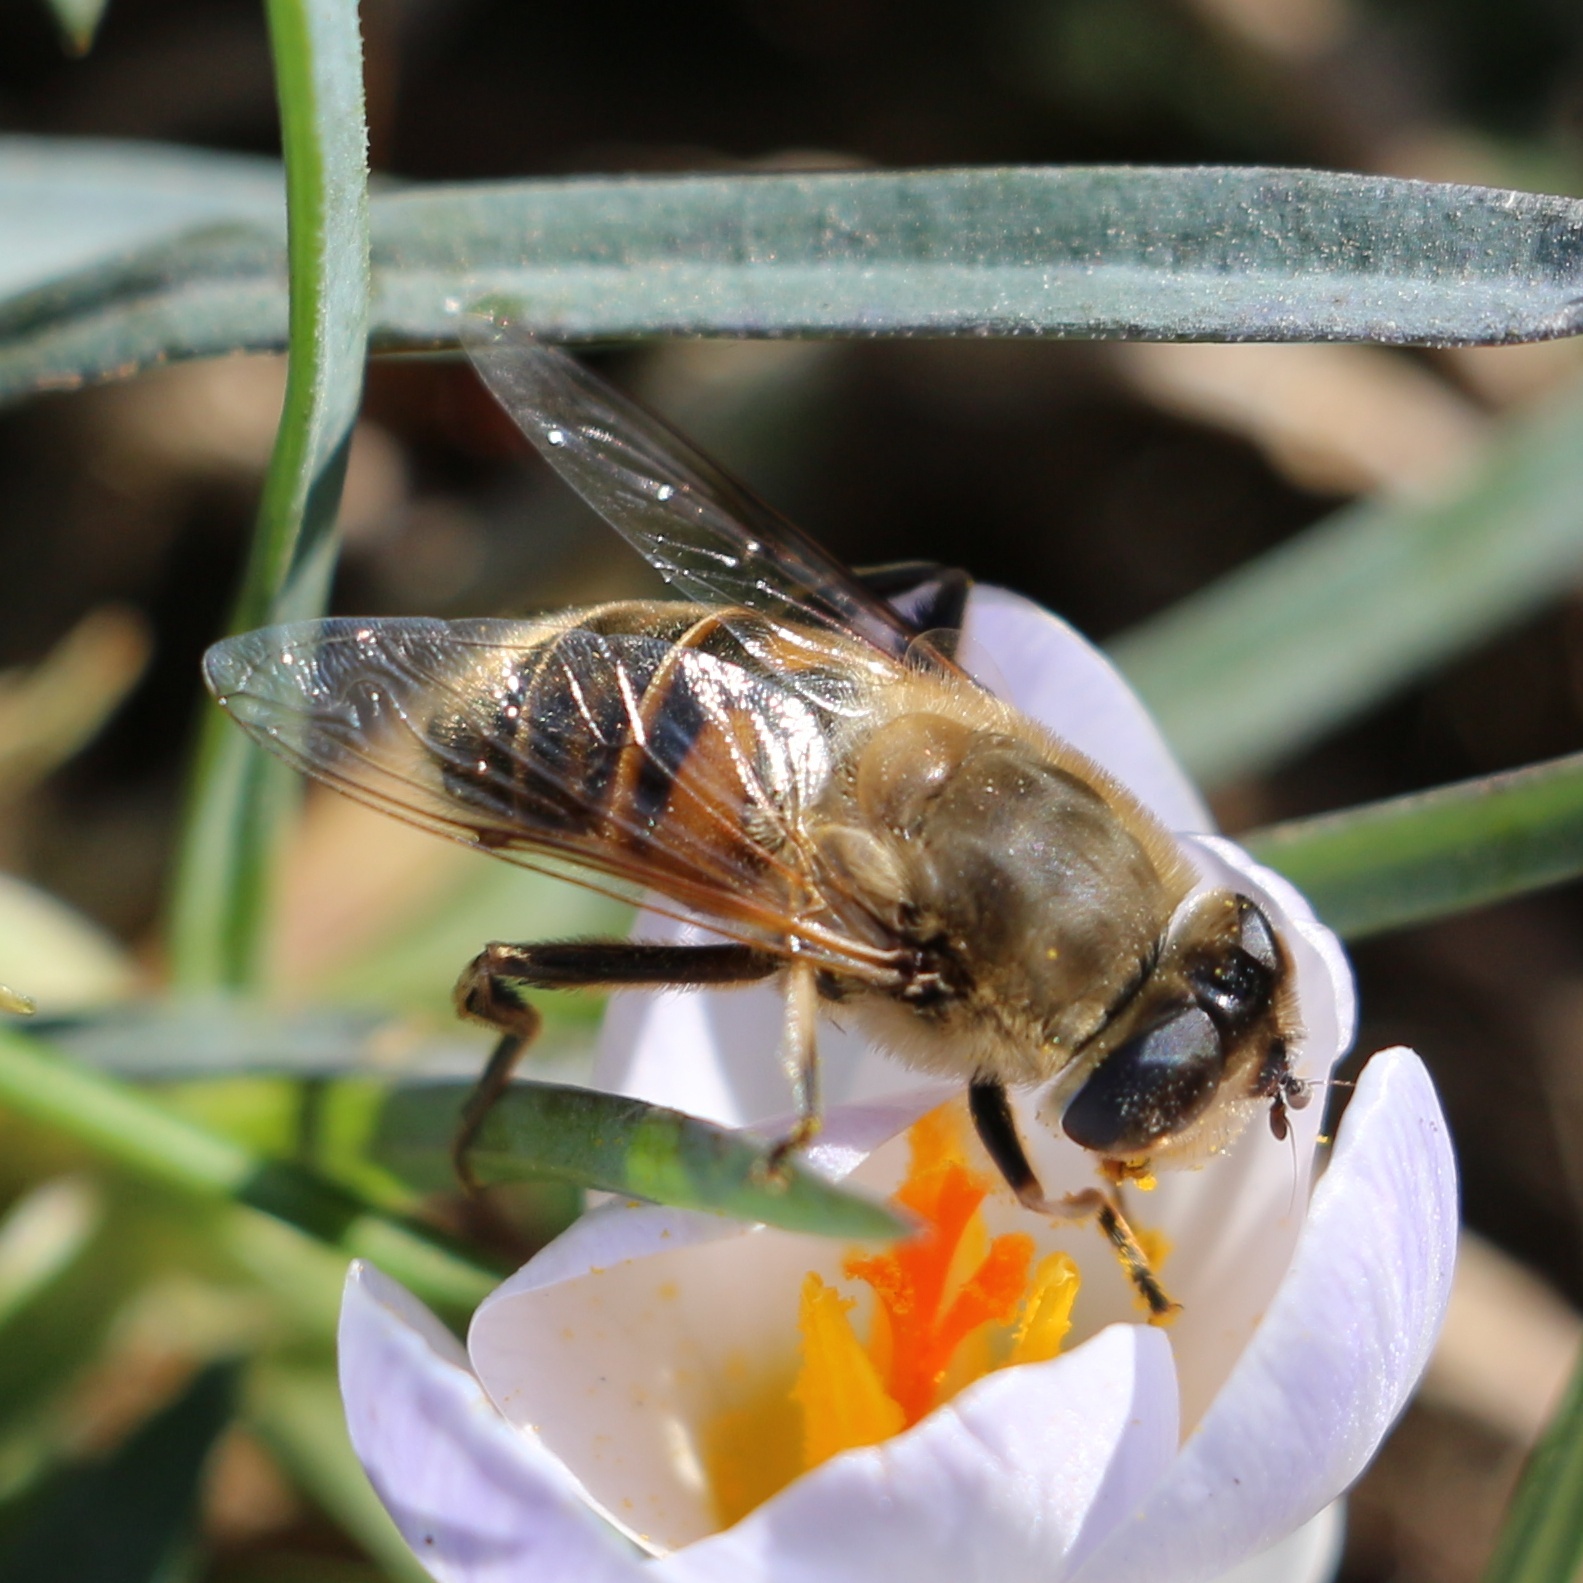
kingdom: Animalia
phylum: Arthropoda
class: Insecta
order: Diptera
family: Syrphidae
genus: Eristalis
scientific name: Eristalis tenax
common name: Drone fly
